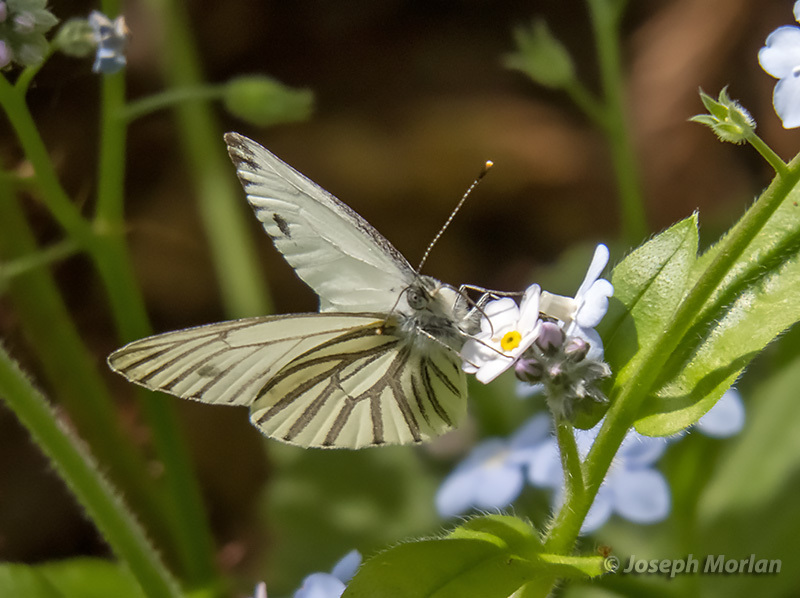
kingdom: Animalia
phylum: Arthropoda
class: Insecta
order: Lepidoptera
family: Pieridae
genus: Pieris
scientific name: Pieris marginalis
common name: Margined white
